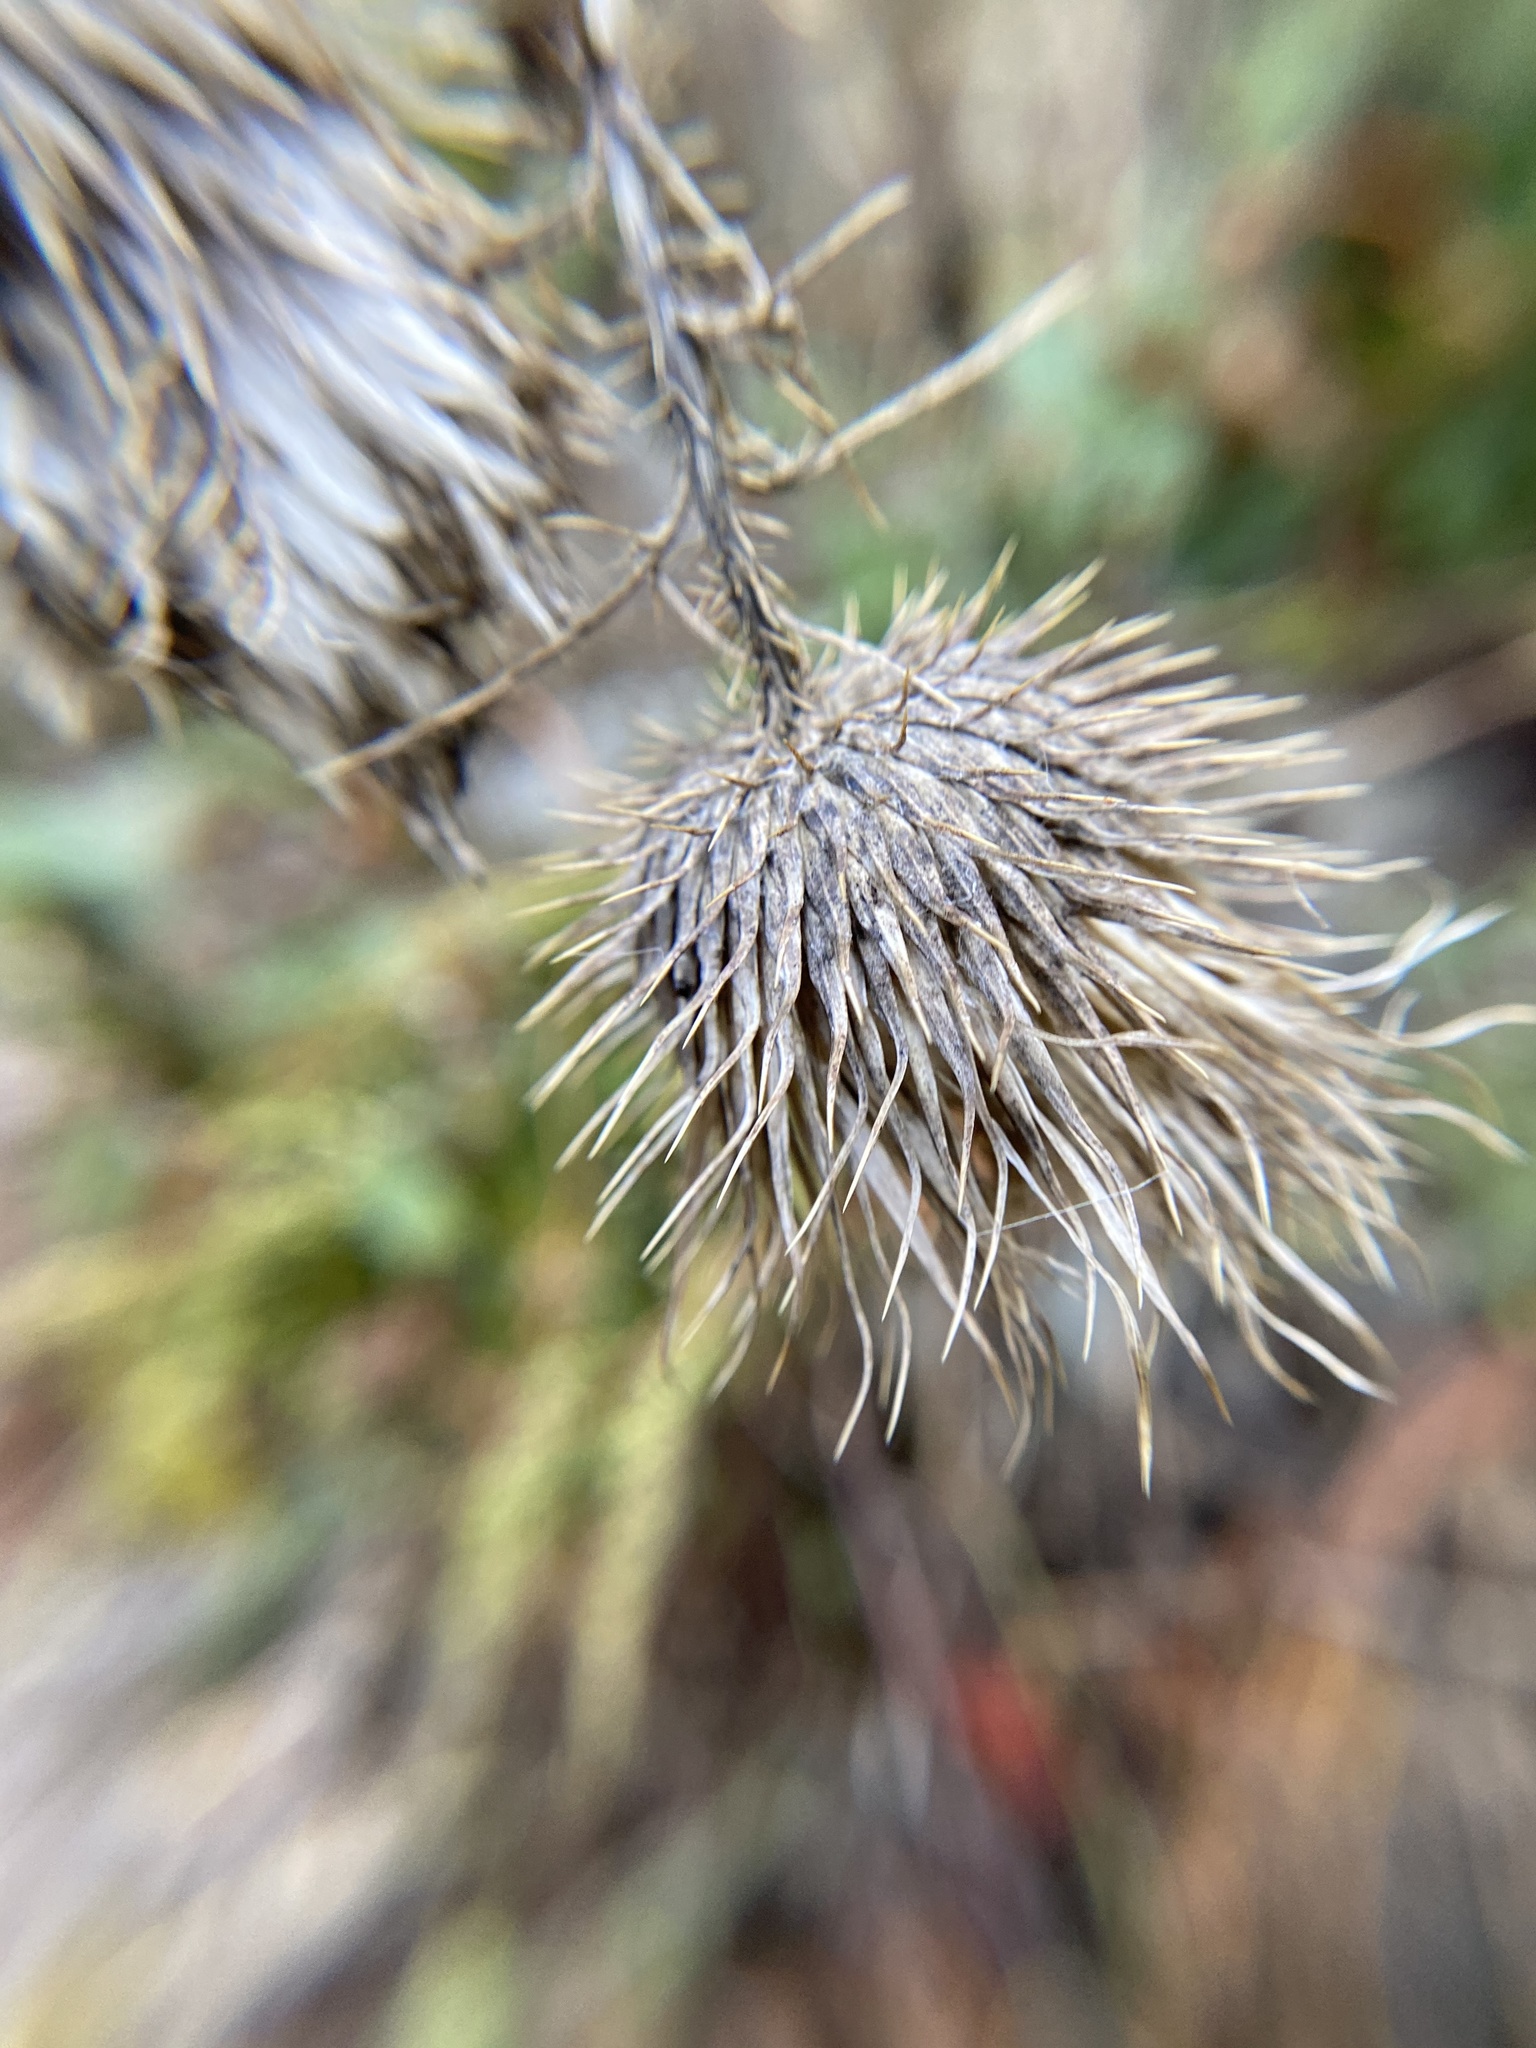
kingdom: Plantae
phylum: Tracheophyta
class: Magnoliopsida
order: Asterales
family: Asteraceae
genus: Cirsium
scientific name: Cirsium vulgare
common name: Bull thistle
